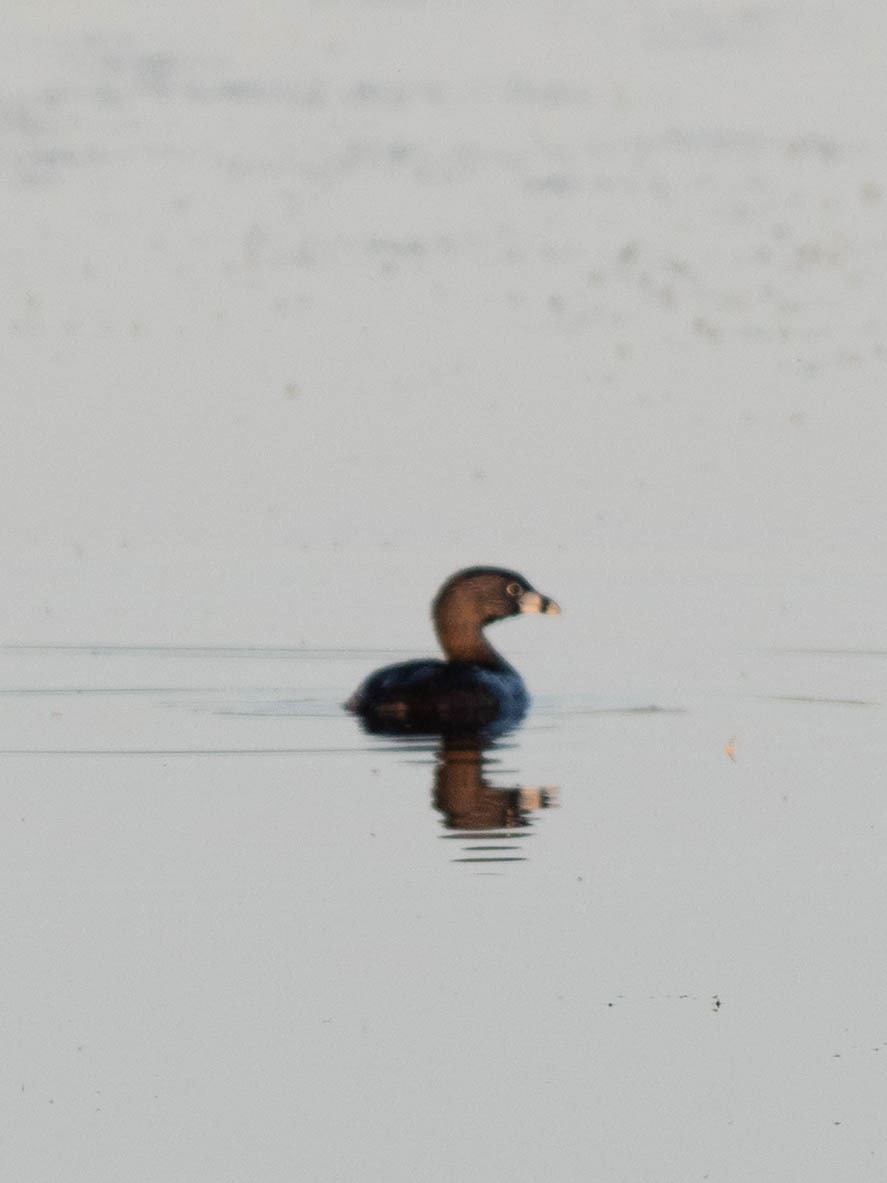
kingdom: Animalia
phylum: Chordata
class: Aves
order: Podicipediformes
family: Podicipedidae
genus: Podilymbus
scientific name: Podilymbus podiceps
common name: Pied-billed grebe
